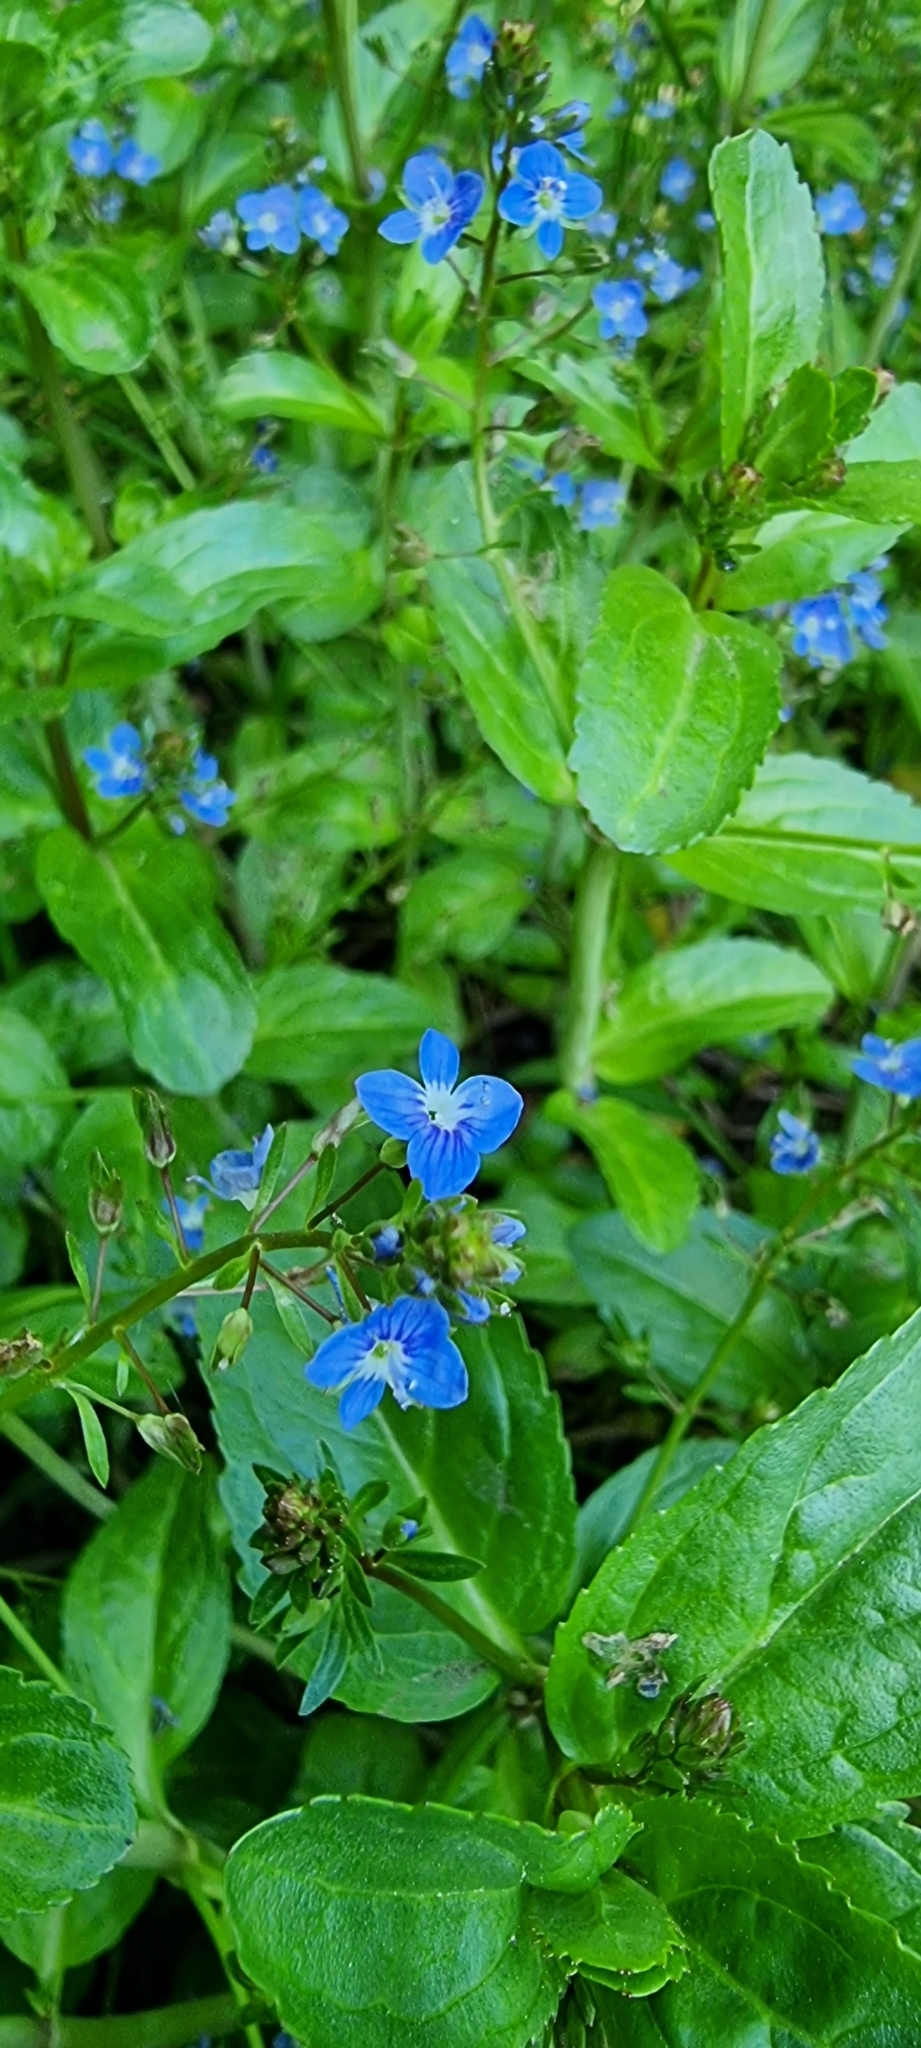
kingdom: Plantae
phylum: Tracheophyta
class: Magnoliopsida
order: Lamiales
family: Plantaginaceae
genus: Veronica
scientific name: Veronica beccabunga
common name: Brooklime
